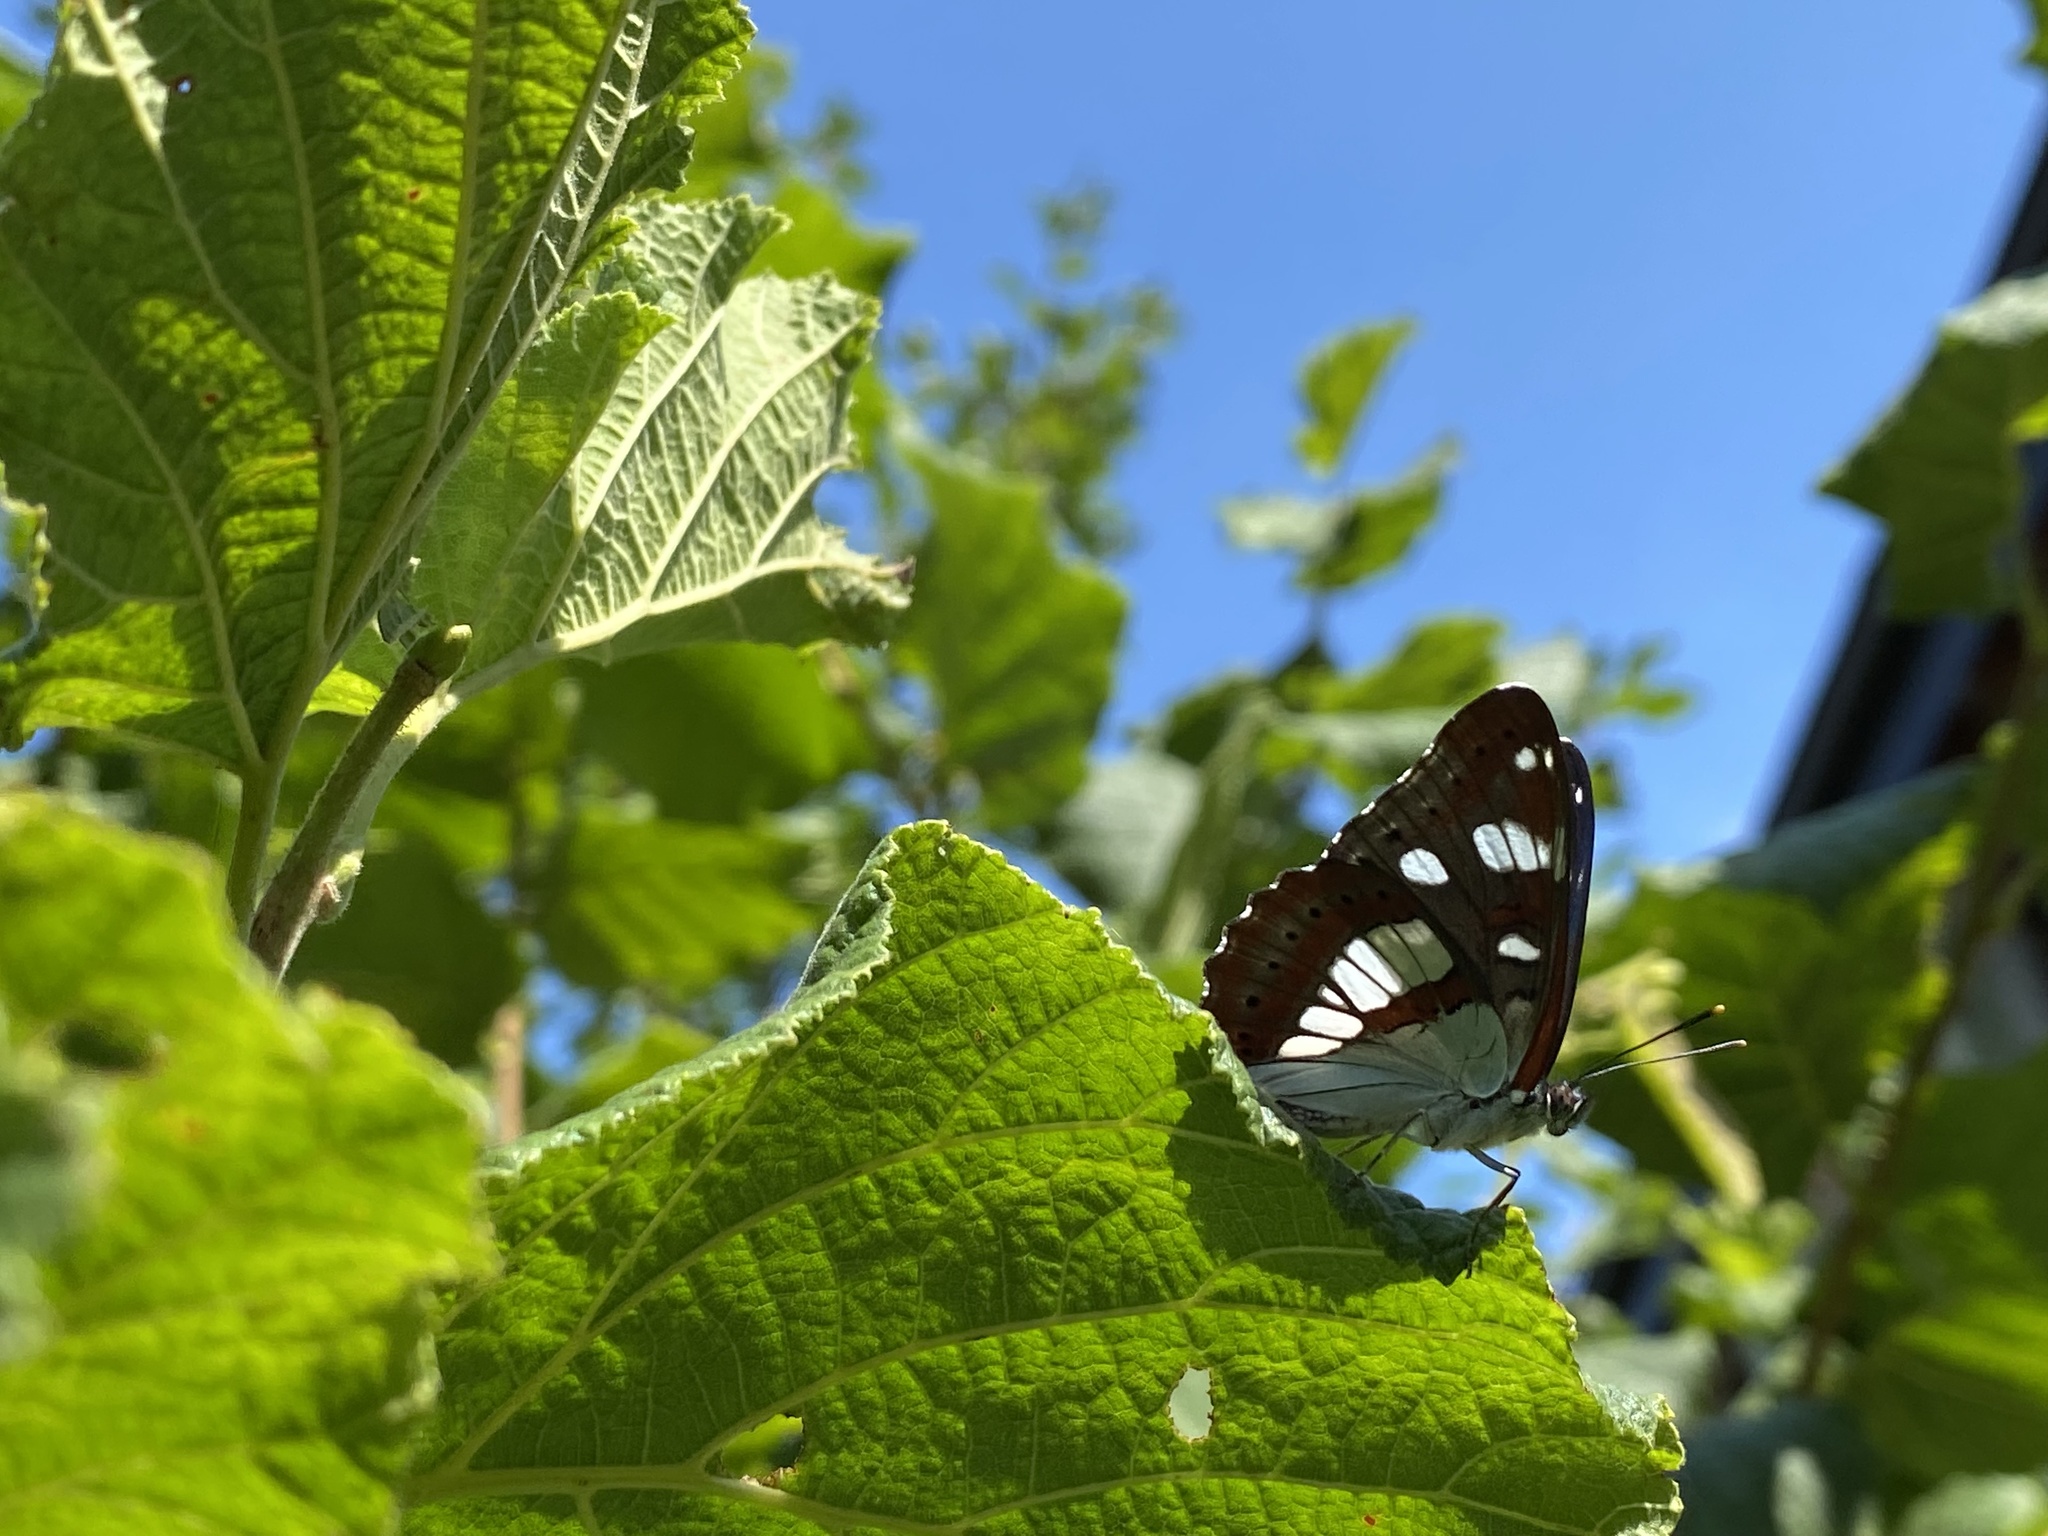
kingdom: Animalia
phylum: Arthropoda
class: Insecta
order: Lepidoptera
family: Nymphalidae
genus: Limenitis
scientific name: Limenitis reducta
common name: Southern white admiral
